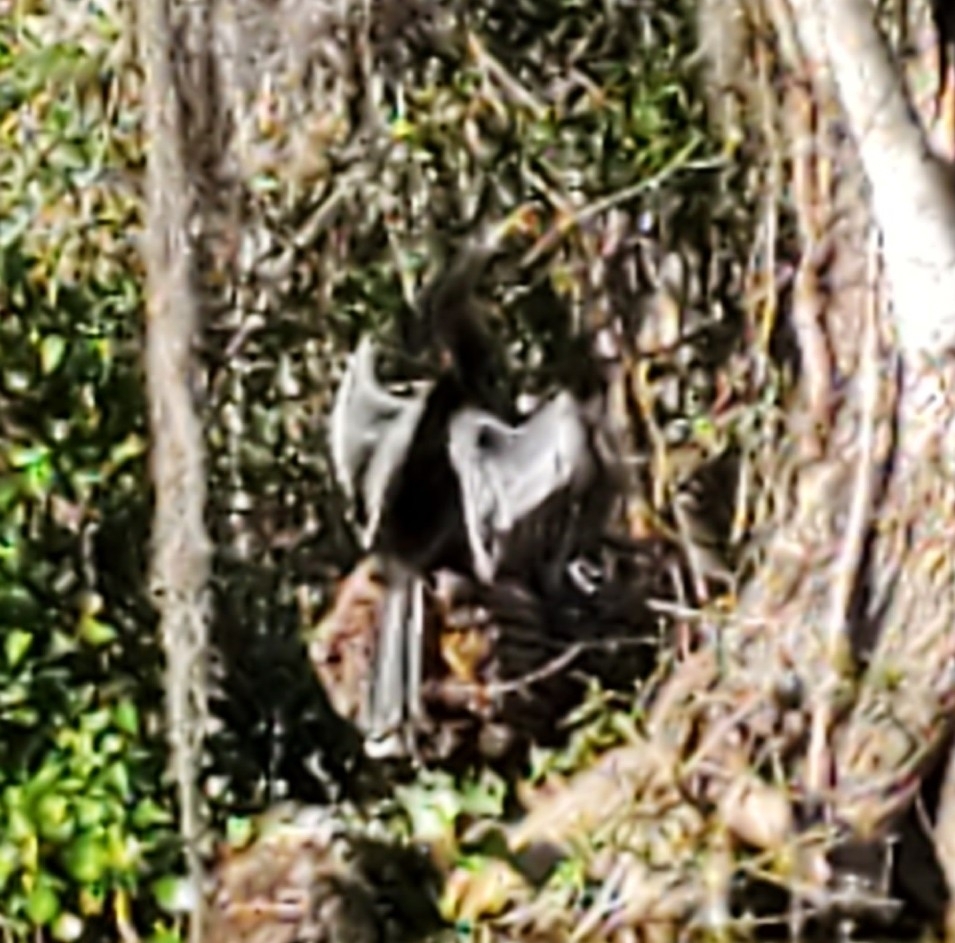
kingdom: Animalia
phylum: Chordata
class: Aves
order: Suliformes
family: Anhingidae
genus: Anhinga
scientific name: Anhinga anhinga
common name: Anhinga
